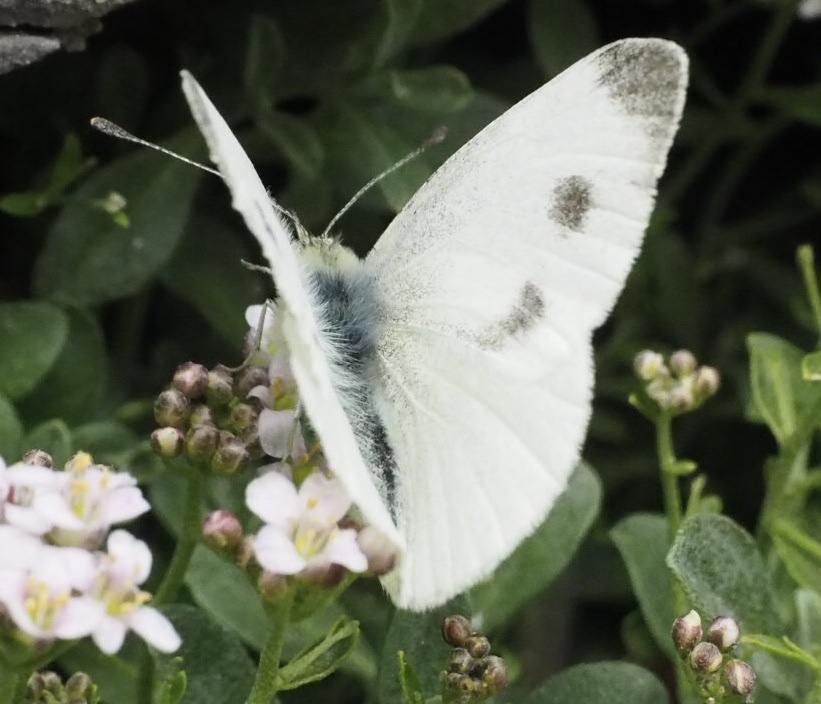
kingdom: Animalia
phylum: Arthropoda
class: Insecta
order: Lepidoptera
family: Pieridae
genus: Pieris
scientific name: Pieris mannii
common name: Southern small white
